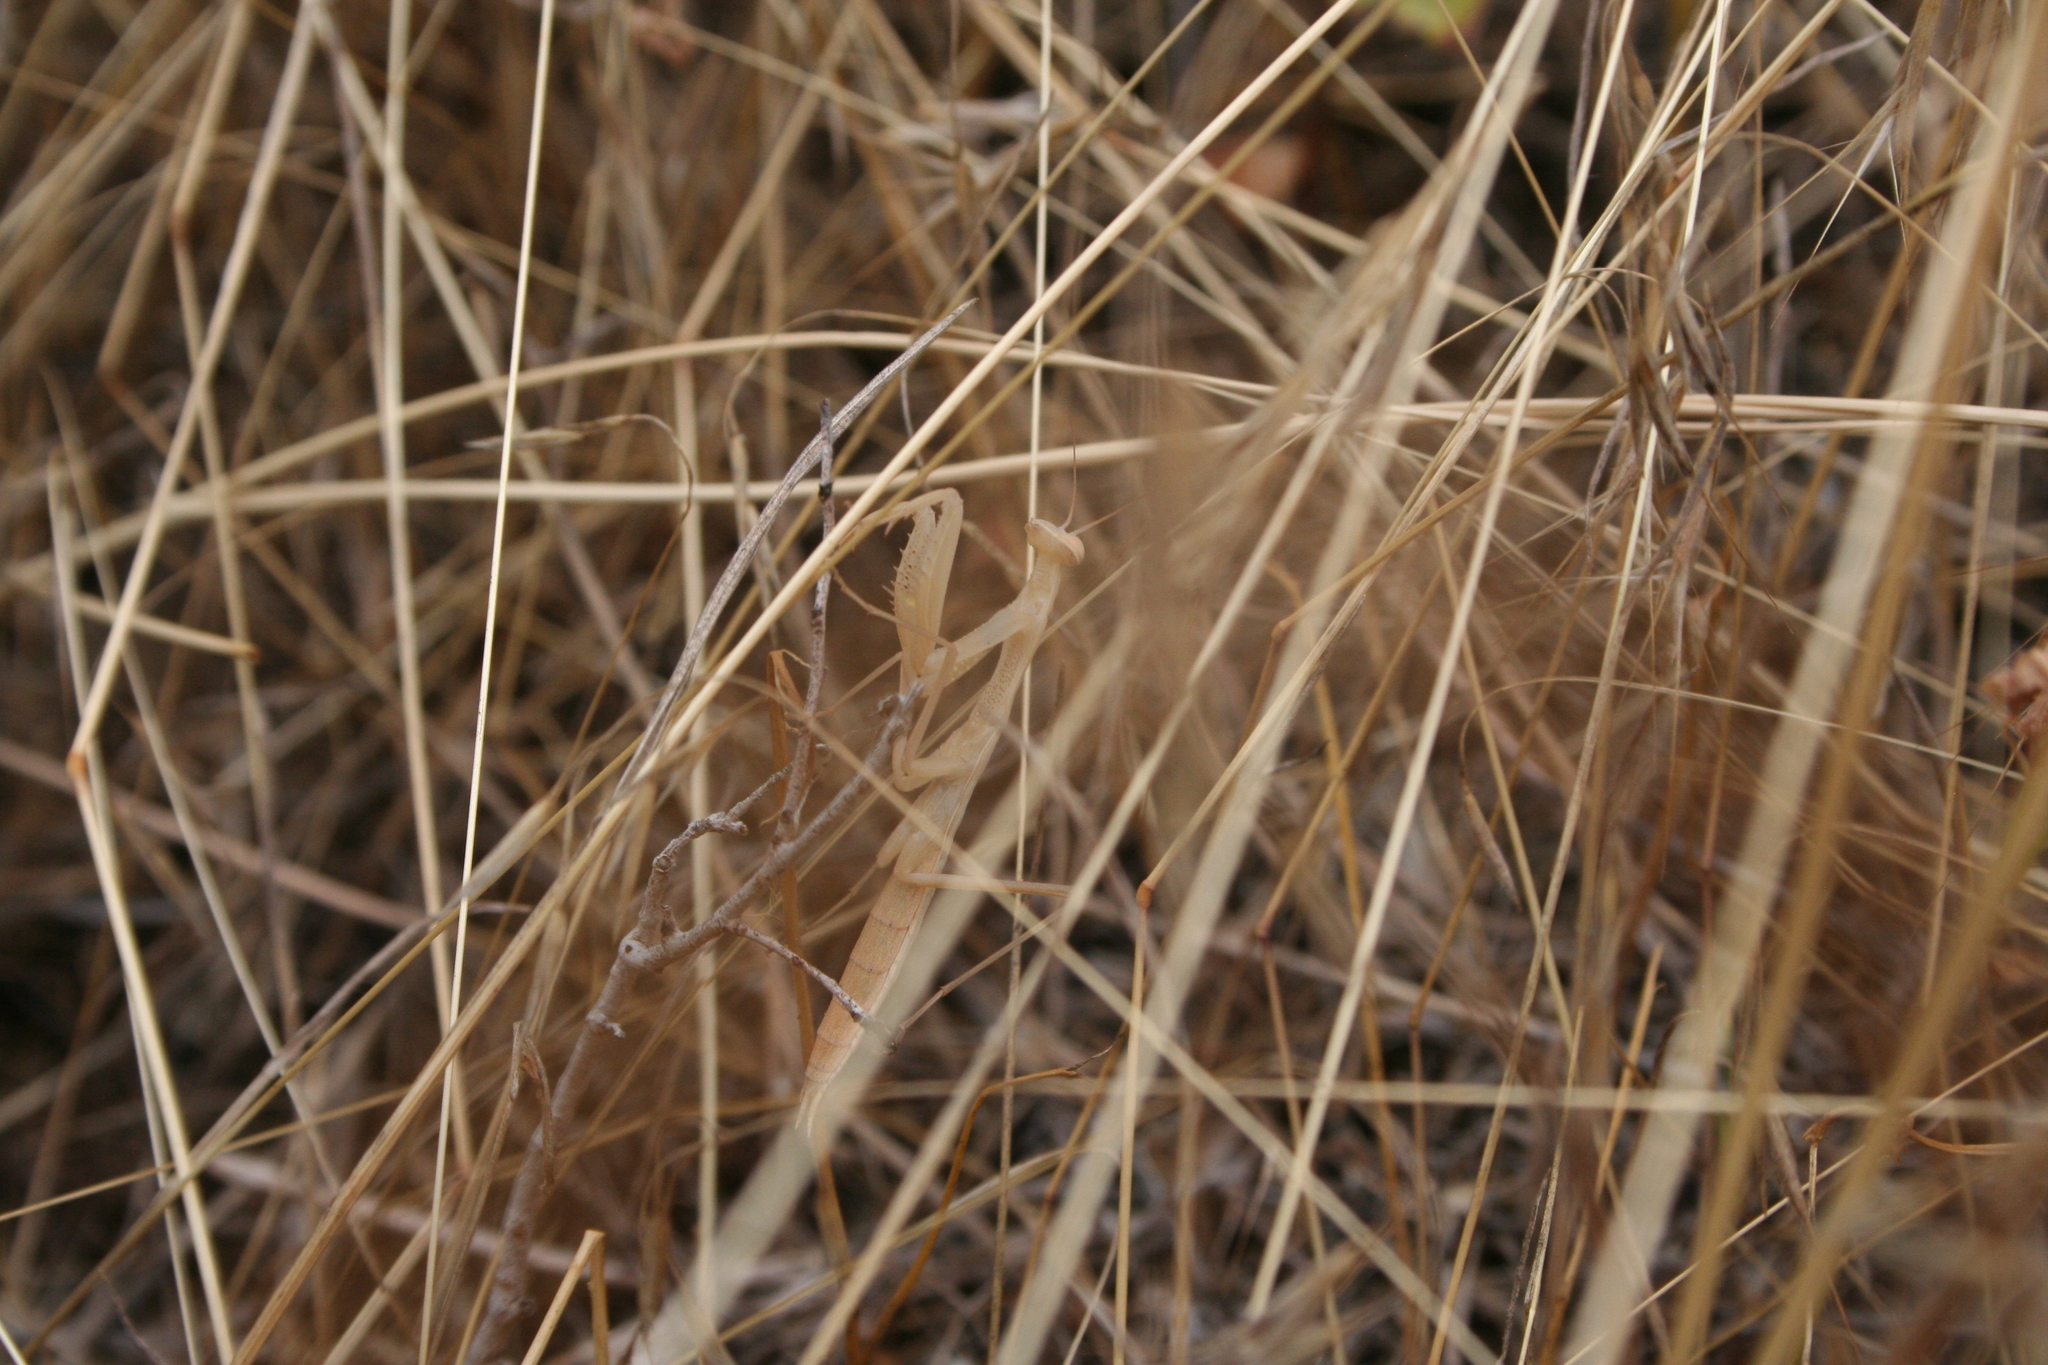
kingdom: Animalia
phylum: Arthropoda
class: Insecta
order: Mantodea
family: Mantidae
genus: Mantis
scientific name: Mantis religiosa
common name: Praying mantis
